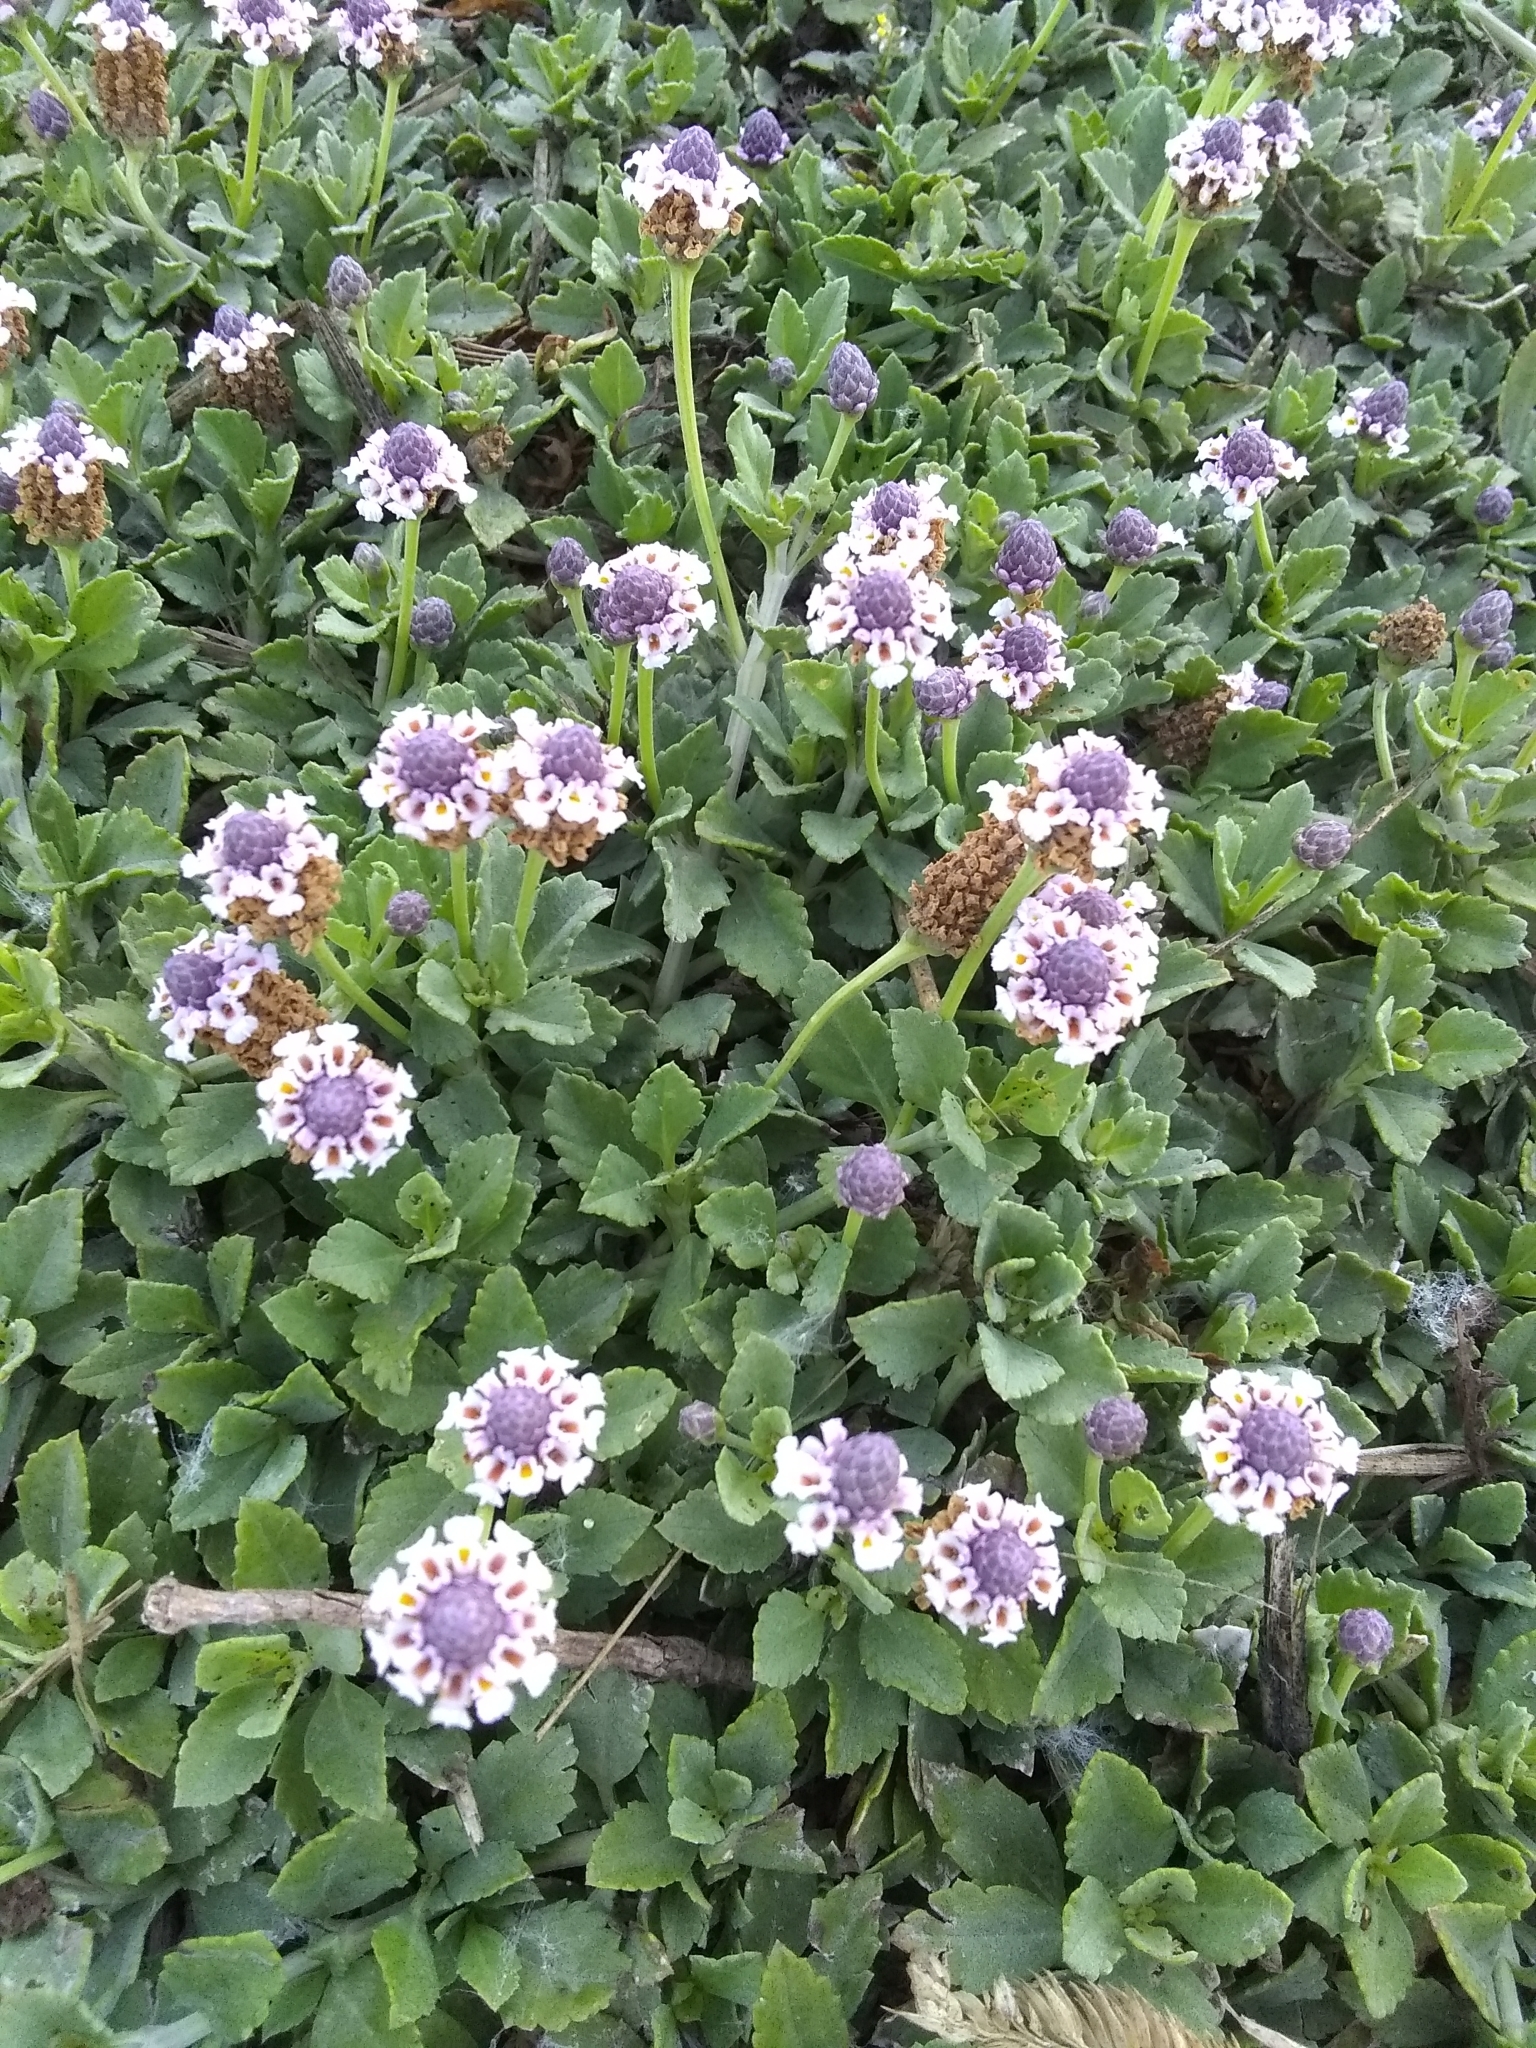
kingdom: Plantae
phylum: Tracheophyta
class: Magnoliopsida
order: Lamiales
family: Verbenaceae
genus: Phyla
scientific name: Phyla nodiflora
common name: Frogfruit
